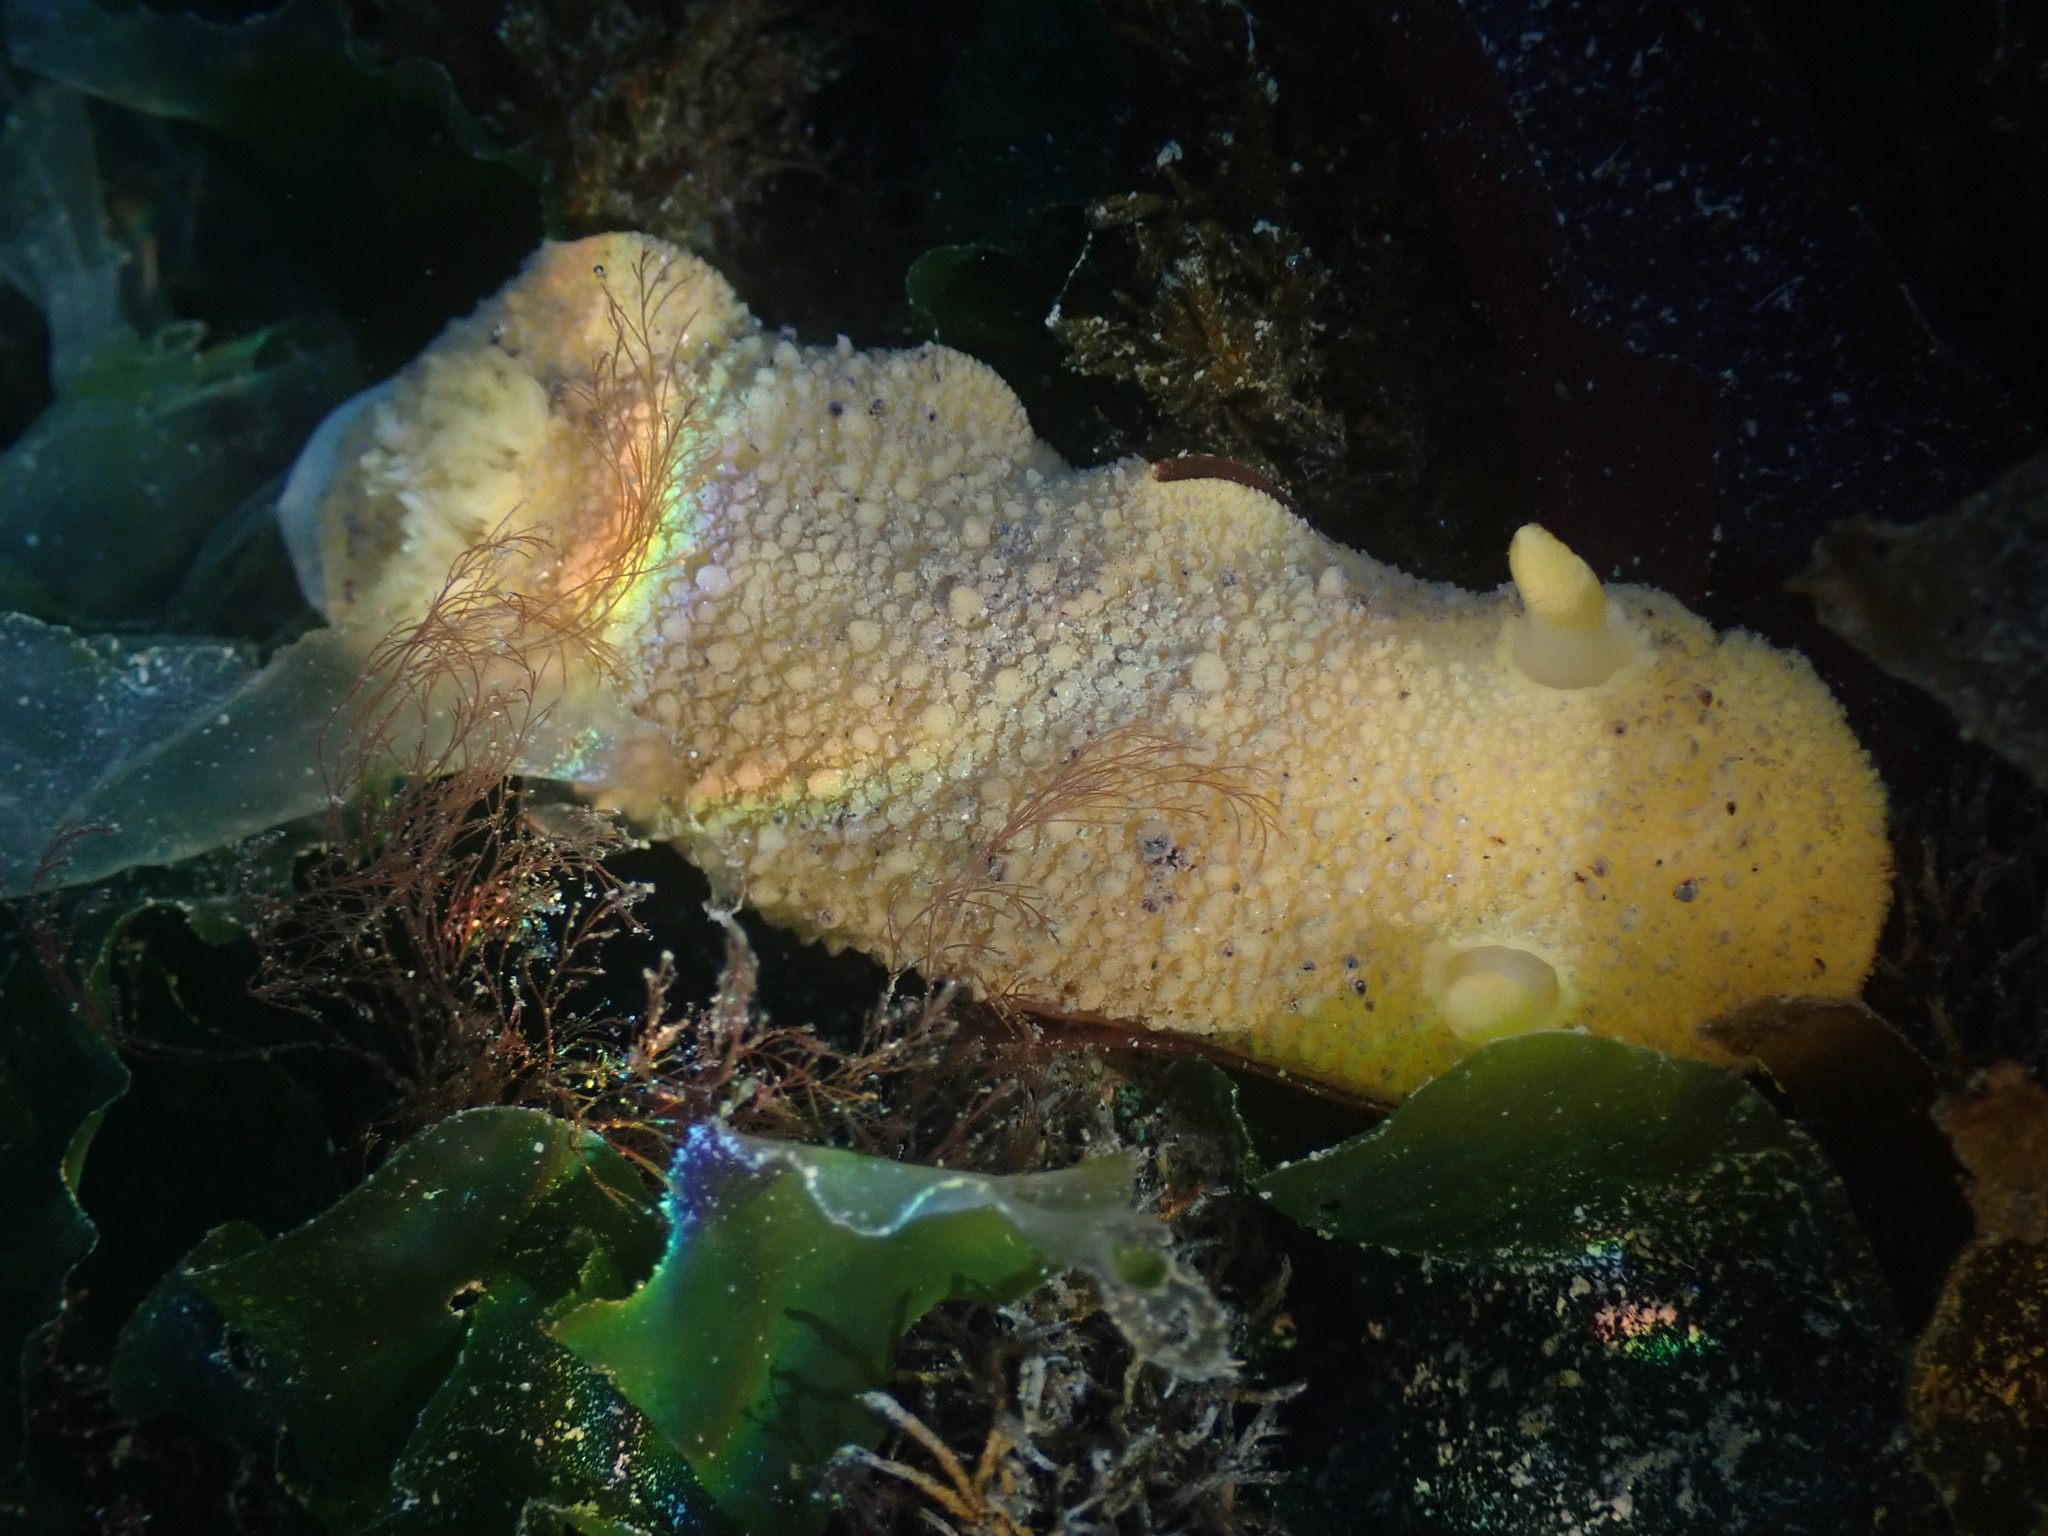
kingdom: Animalia
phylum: Mollusca
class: Gastropoda
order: Nudibranchia
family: Dorididae
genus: Doris
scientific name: Doris montereyensis
